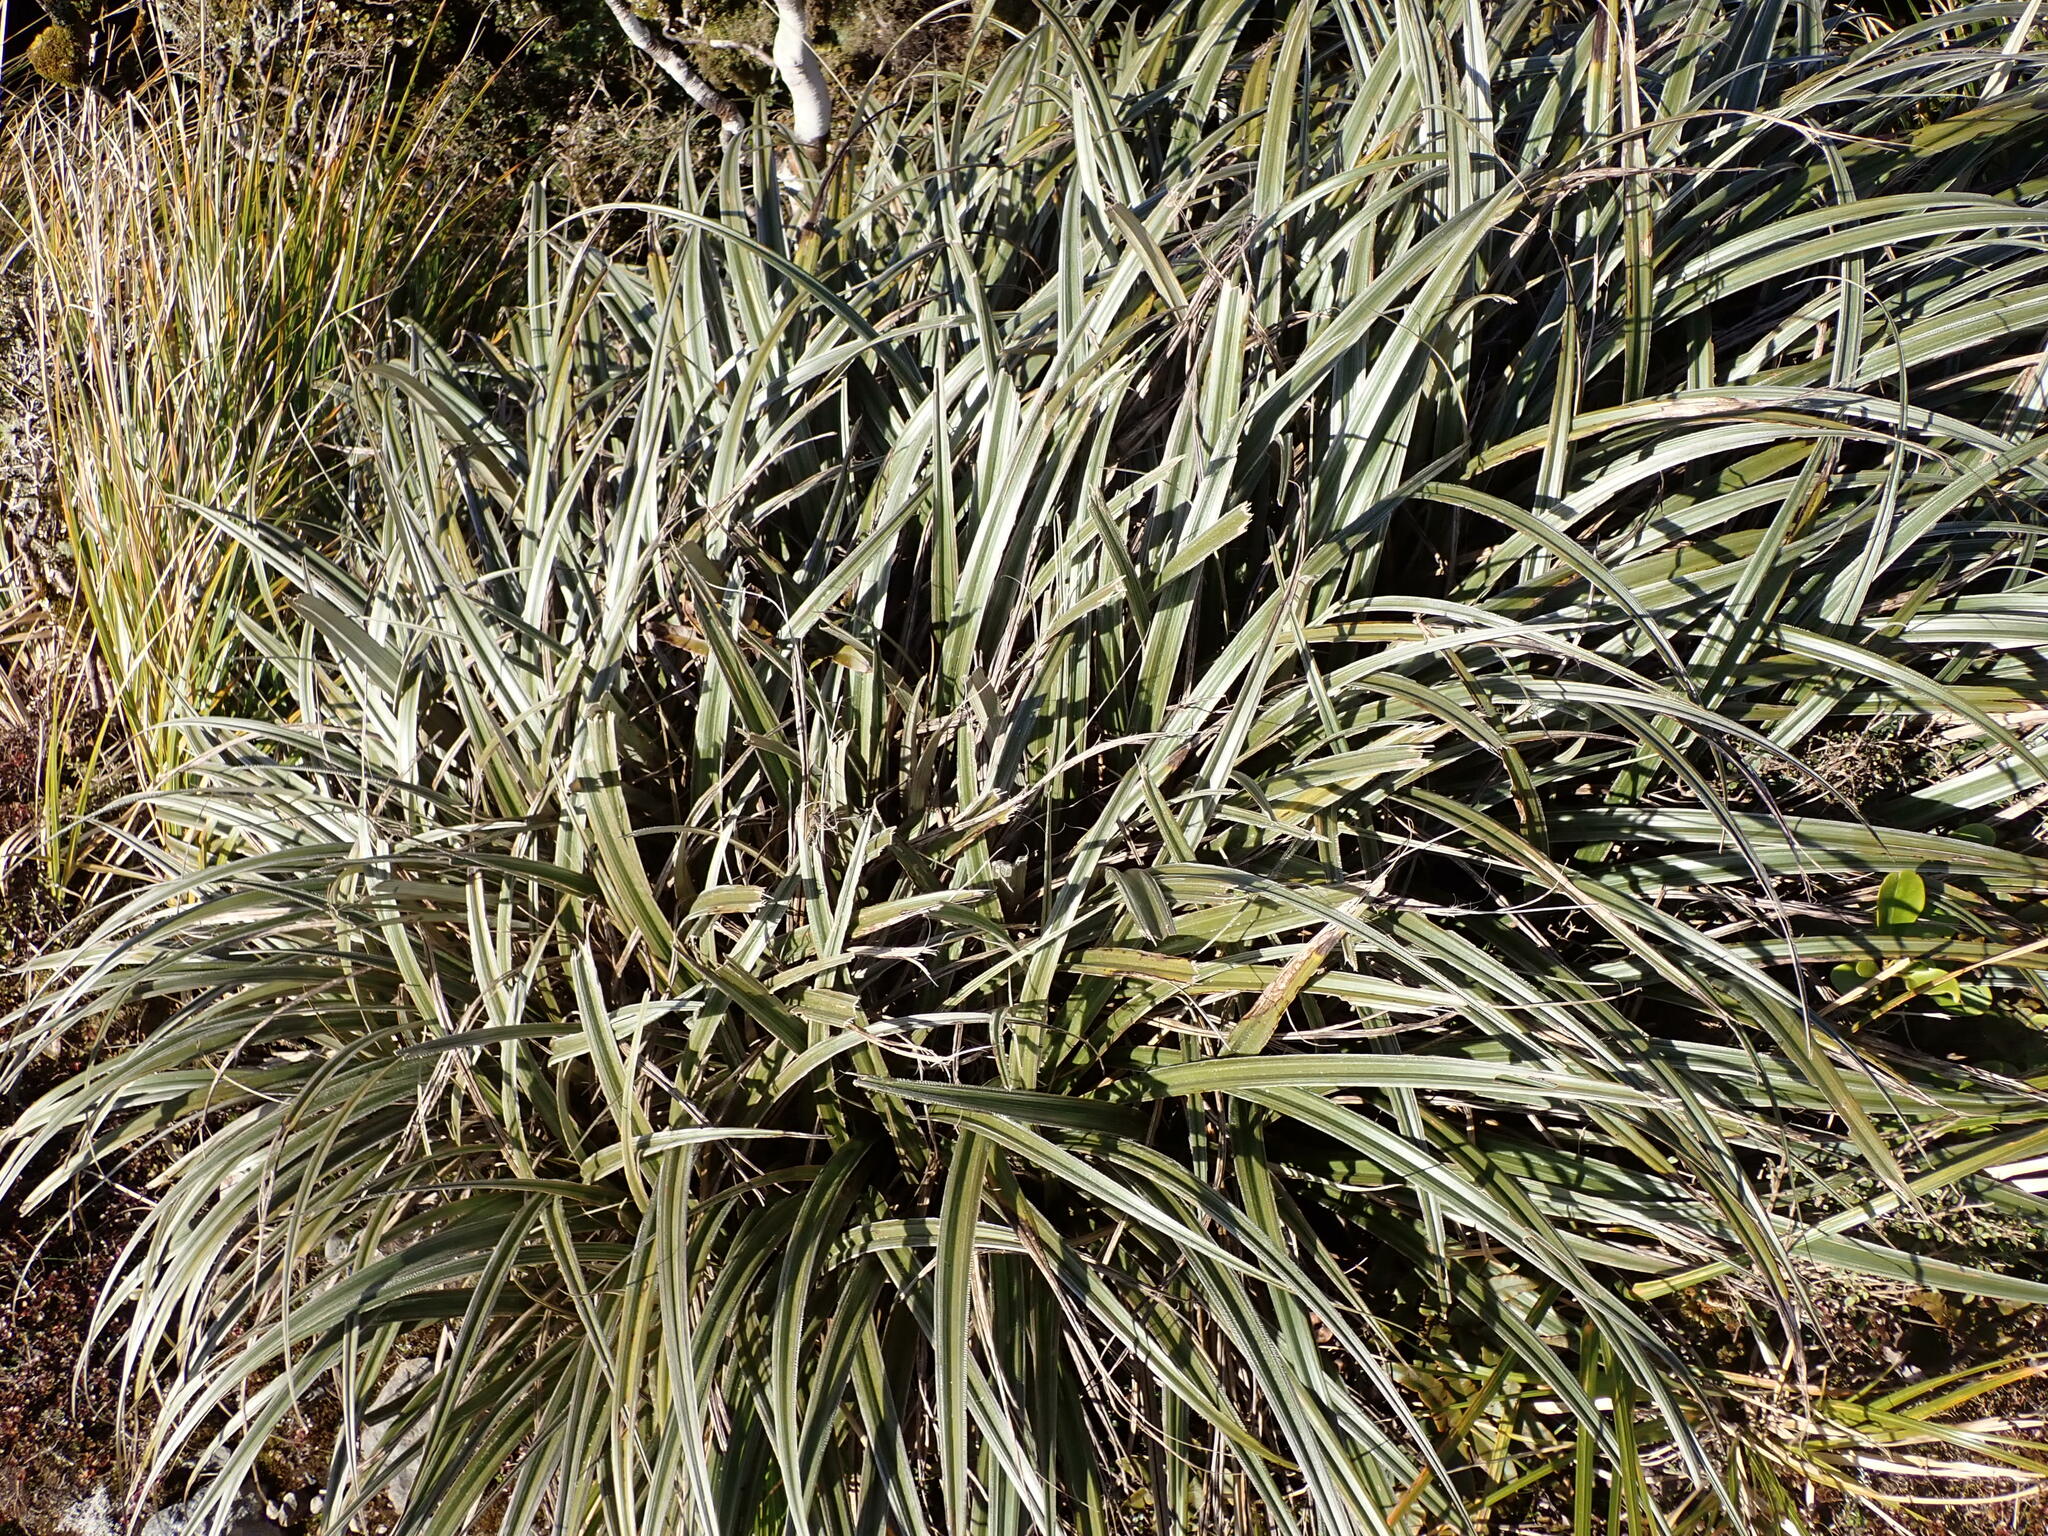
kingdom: Plantae
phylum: Tracheophyta
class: Liliopsida
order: Asparagales
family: Asteliaceae
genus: Astelia
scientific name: Astelia nervosa
